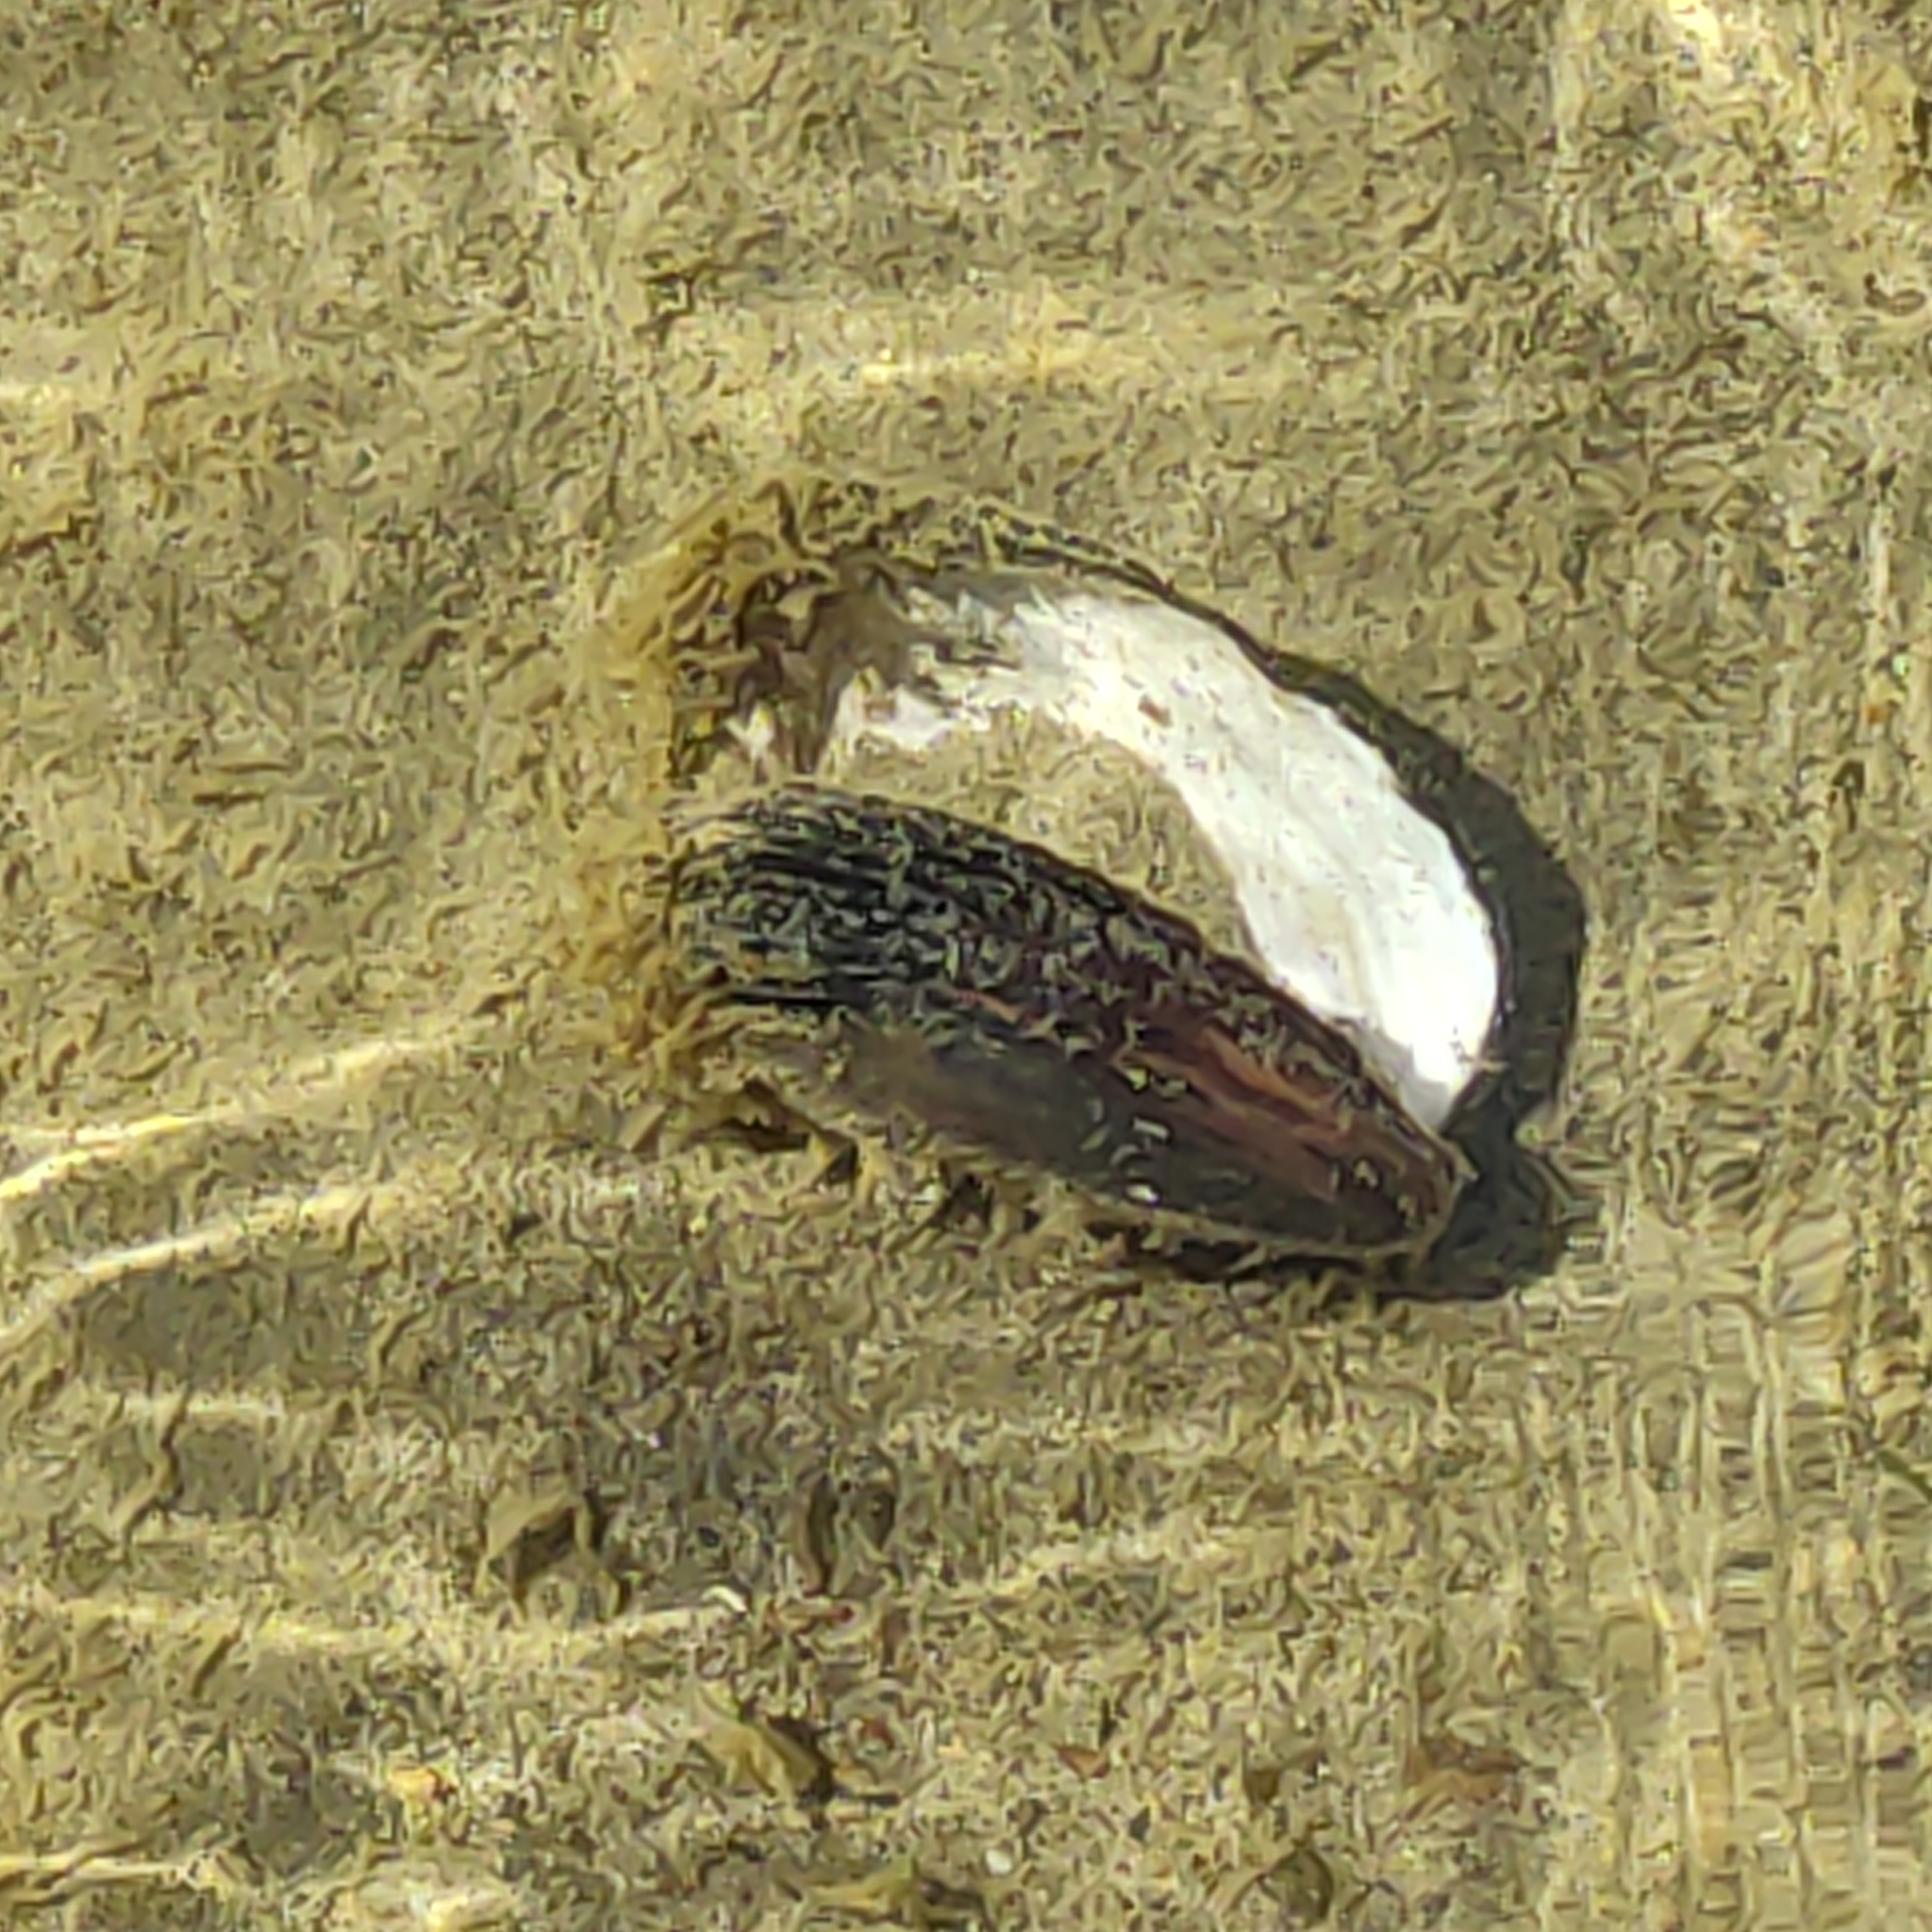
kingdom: Animalia
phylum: Mollusca
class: Bivalvia
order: Unionida
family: Hyriidae
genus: Echyridella
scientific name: Echyridella menziesii
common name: New zealand freshwater mussel
